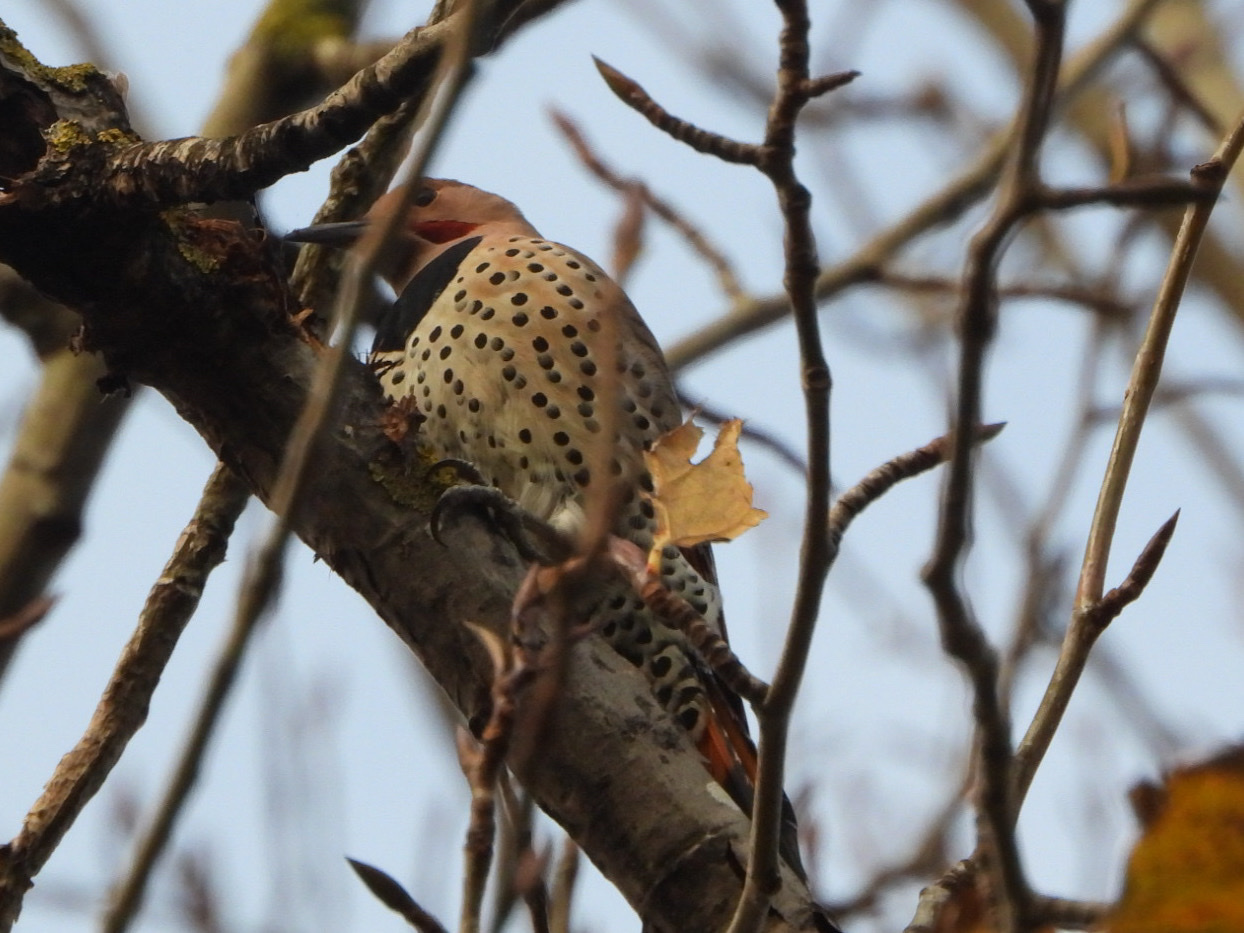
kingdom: Animalia
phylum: Chordata
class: Aves
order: Piciformes
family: Picidae
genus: Colaptes
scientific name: Colaptes
